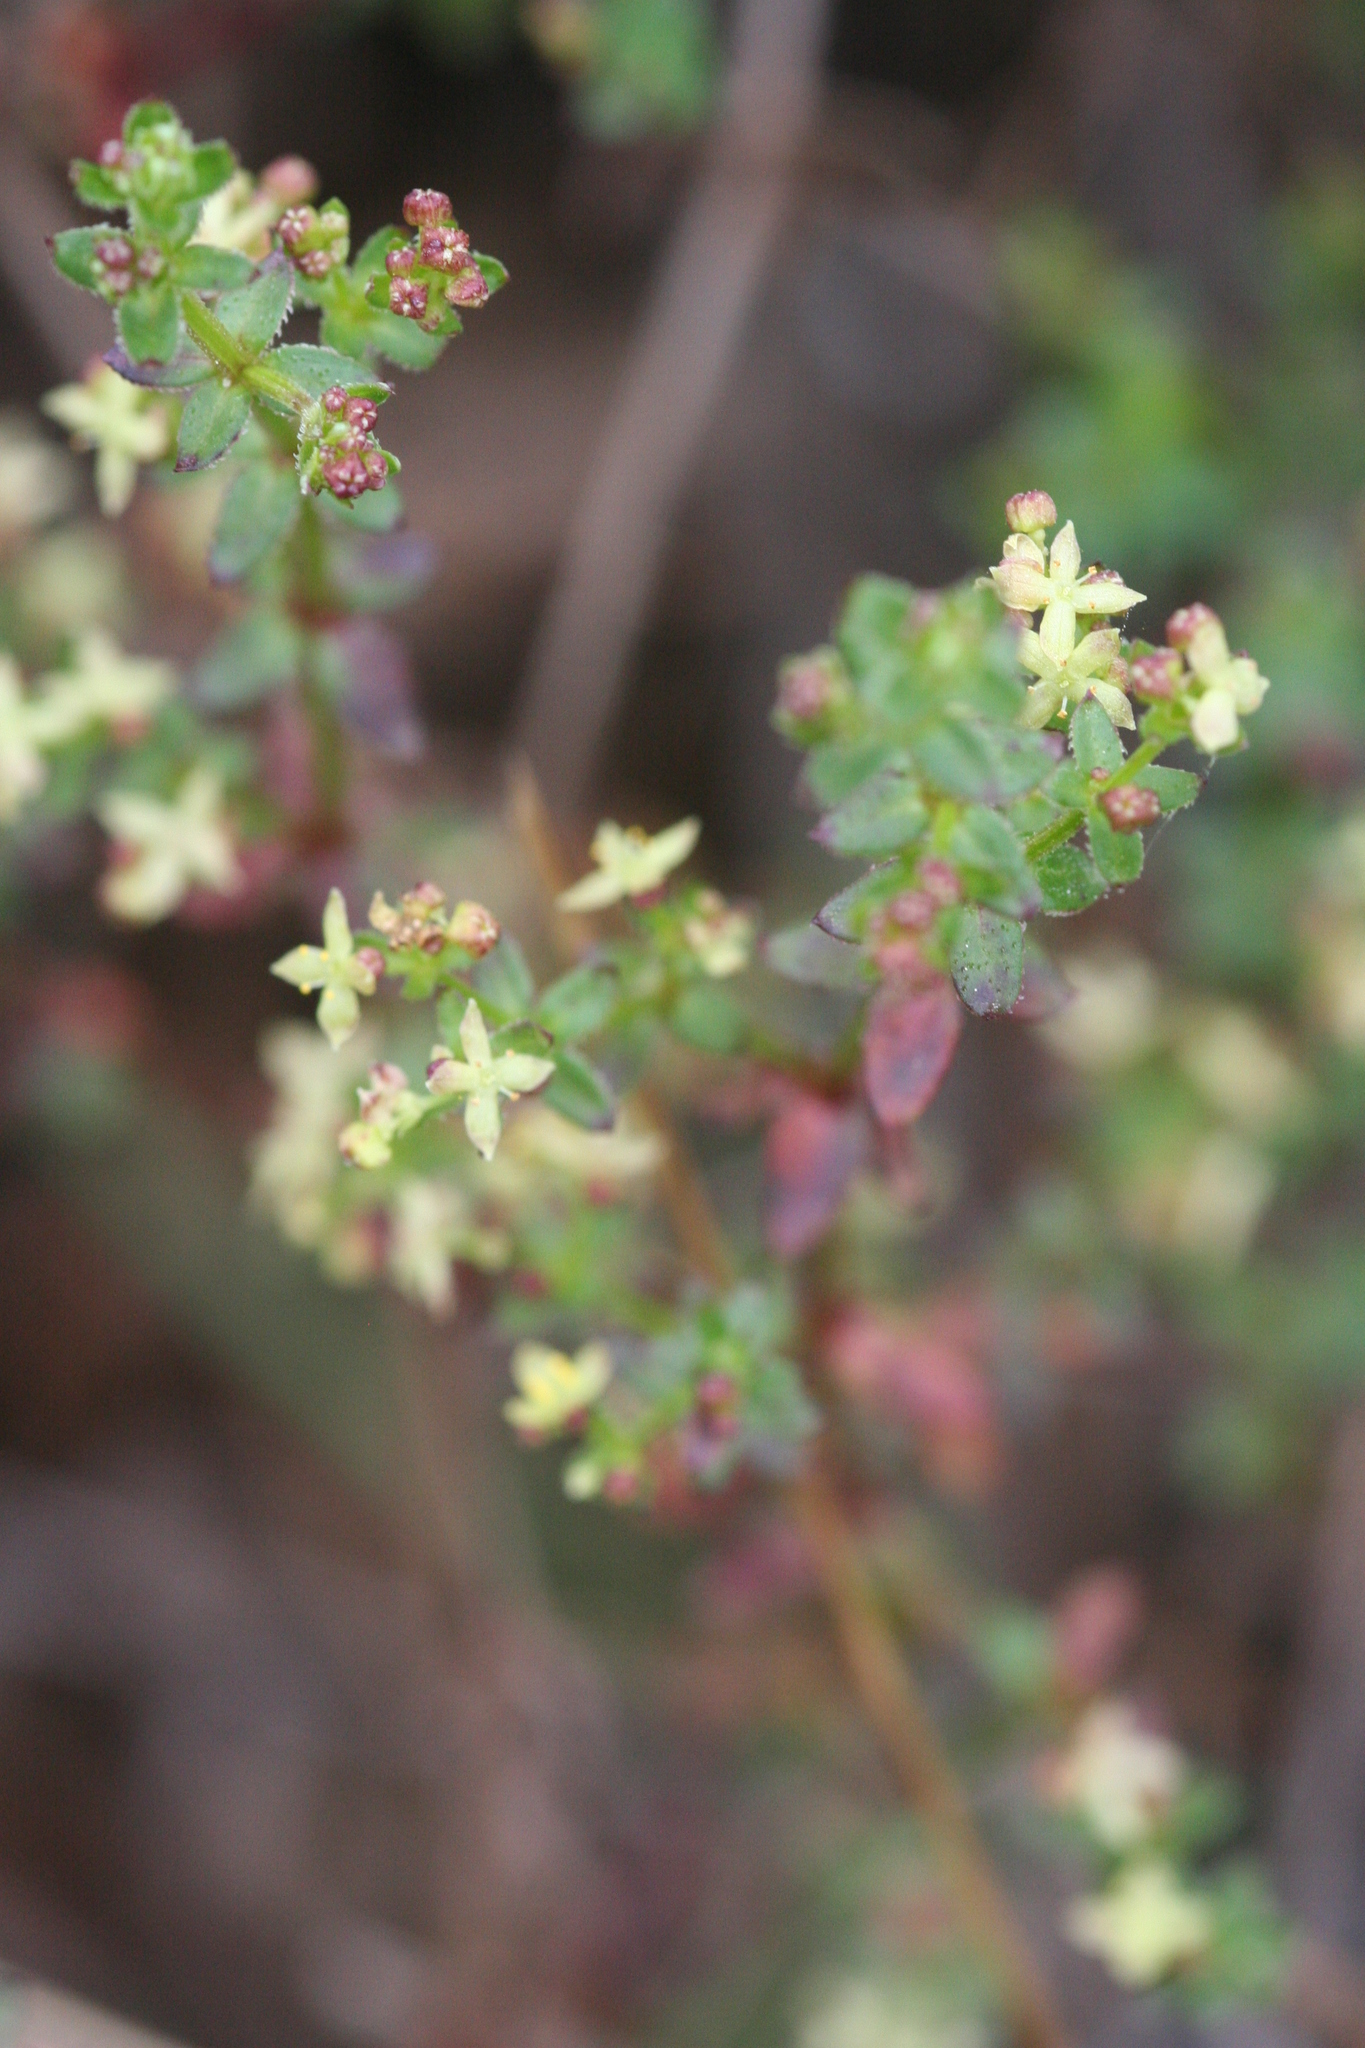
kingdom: Plantae
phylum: Tracheophyta
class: Magnoliopsida
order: Gentianales
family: Rubiaceae
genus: Galium
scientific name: Galium porrigens
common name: Climbing bedstraw
